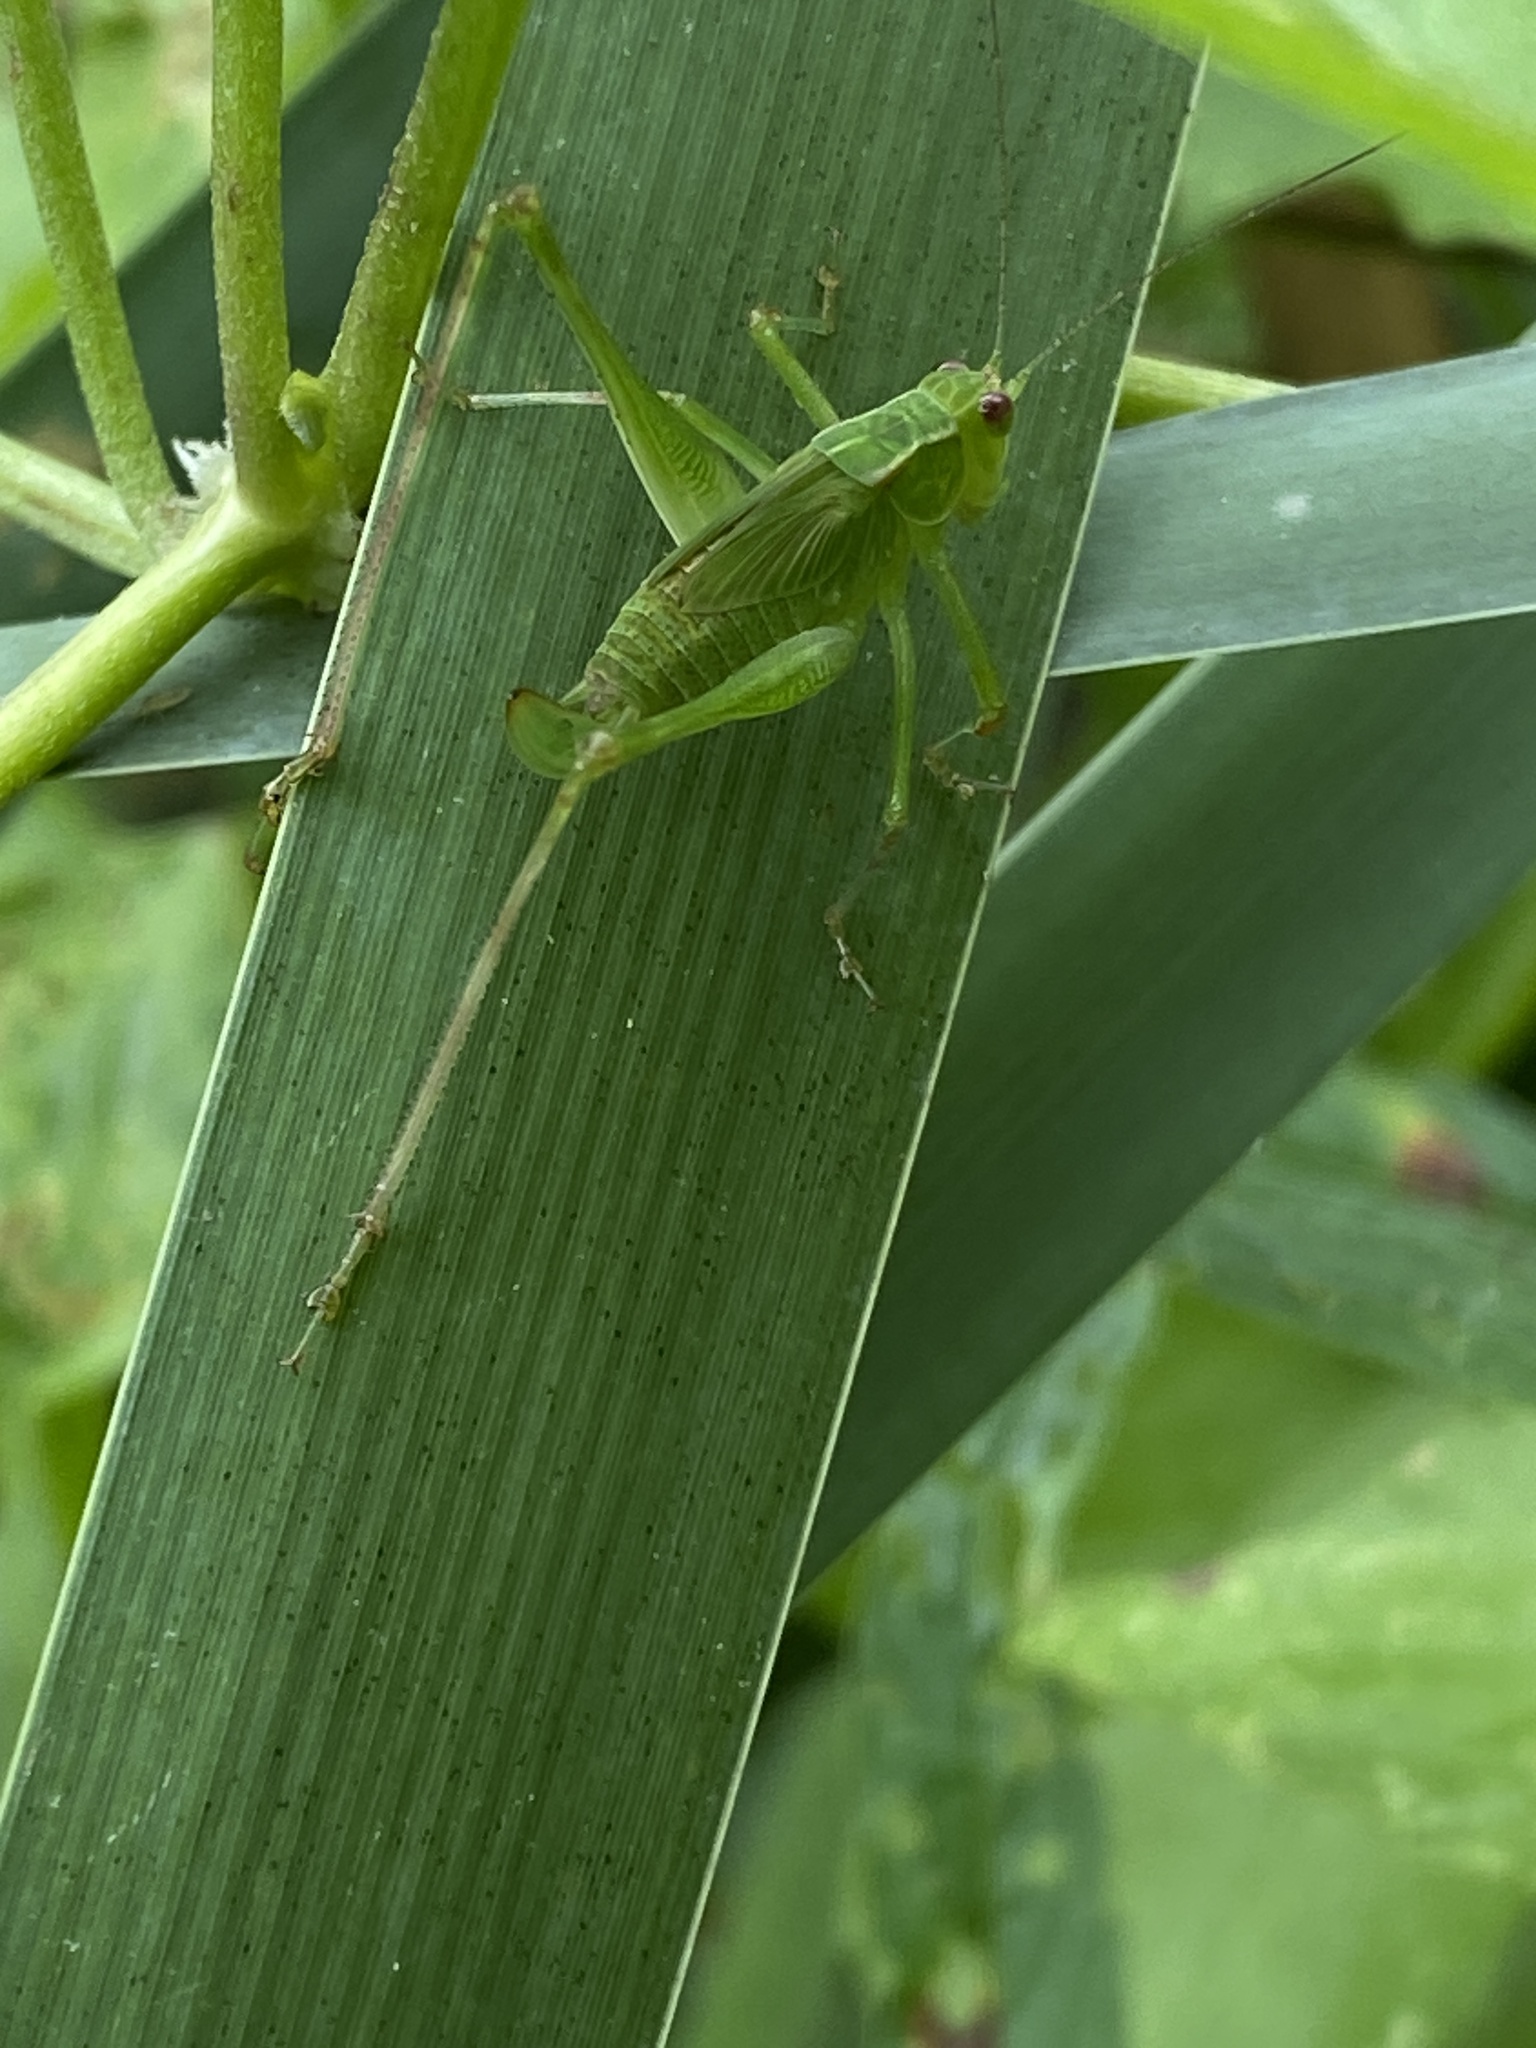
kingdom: Animalia
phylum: Arthropoda
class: Insecta
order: Orthoptera
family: Tettigoniidae
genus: Ligocatinus
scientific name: Ligocatinus spinatus
